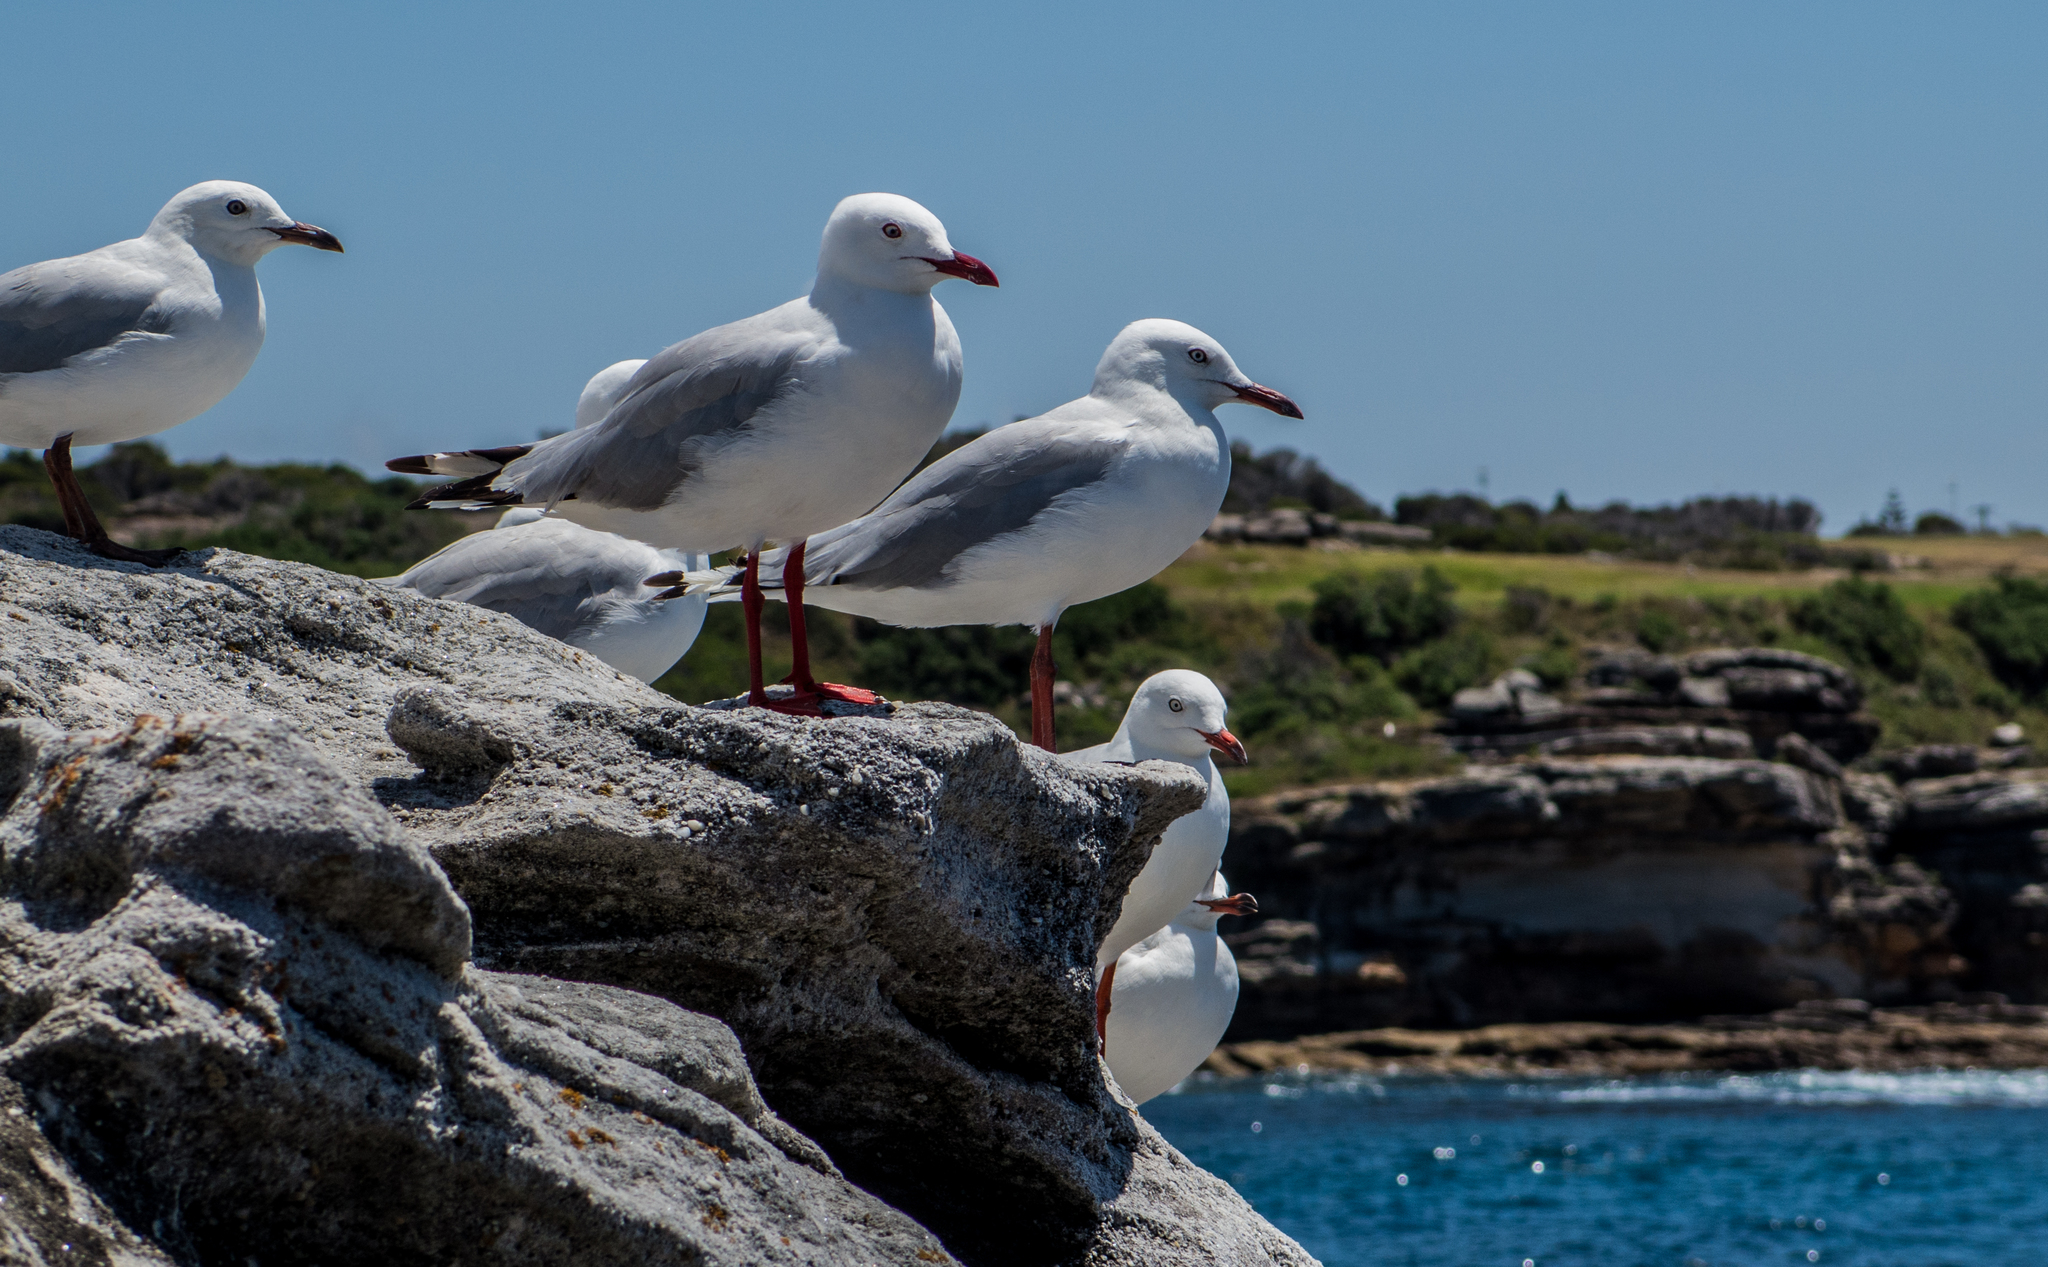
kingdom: Animalia
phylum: Chordata
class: Aves
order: Charadriiformes
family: Laridae
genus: Chroicocephalus
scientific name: Chroicocephalus novaehollandiae
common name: Silver gull
